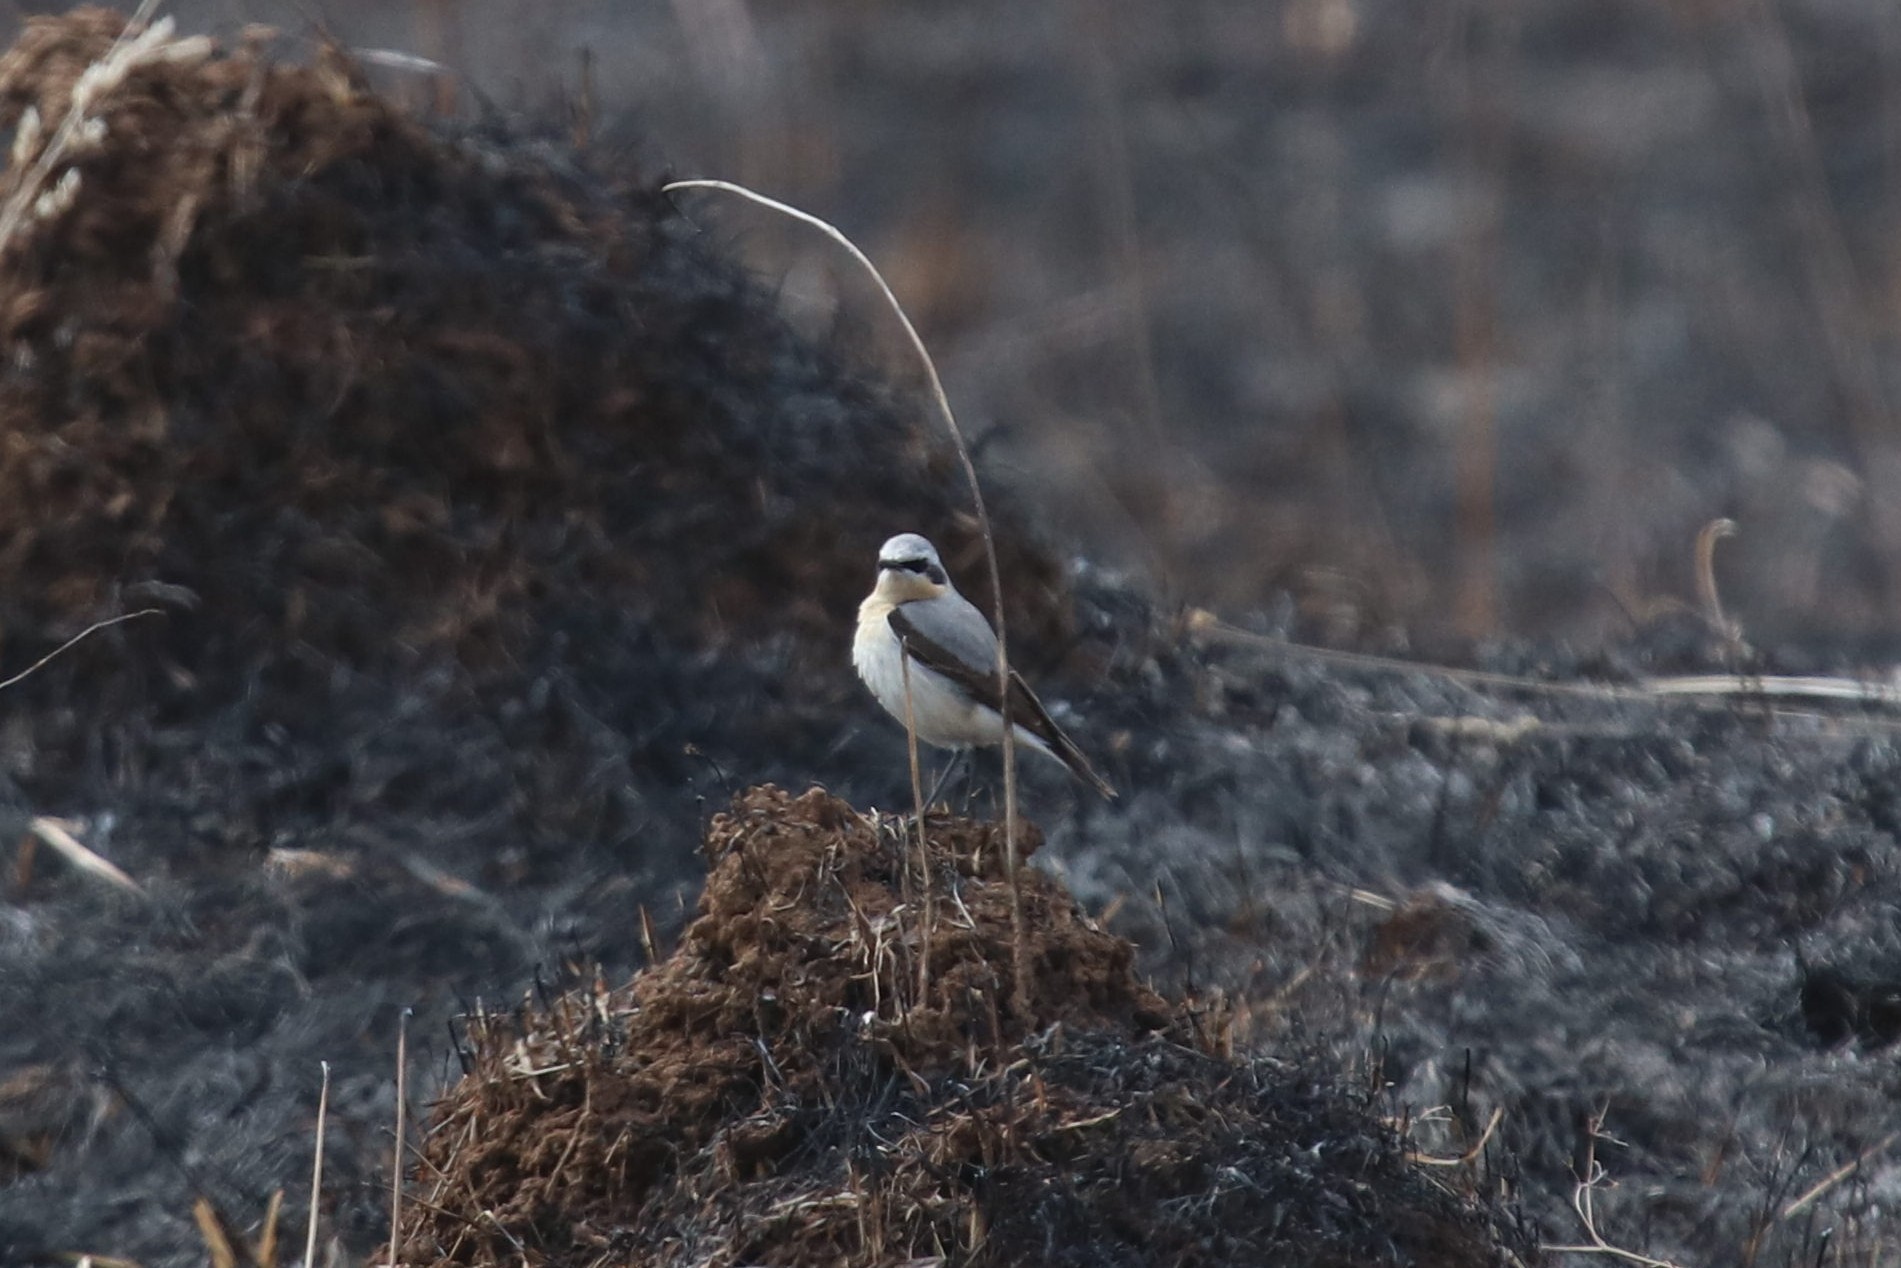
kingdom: Animalia
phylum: Chordata
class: Aves
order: Passeriformes
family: Muscicapidae
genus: Oenanthe
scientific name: Oenanthe oenanthe
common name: Northern wheatear
